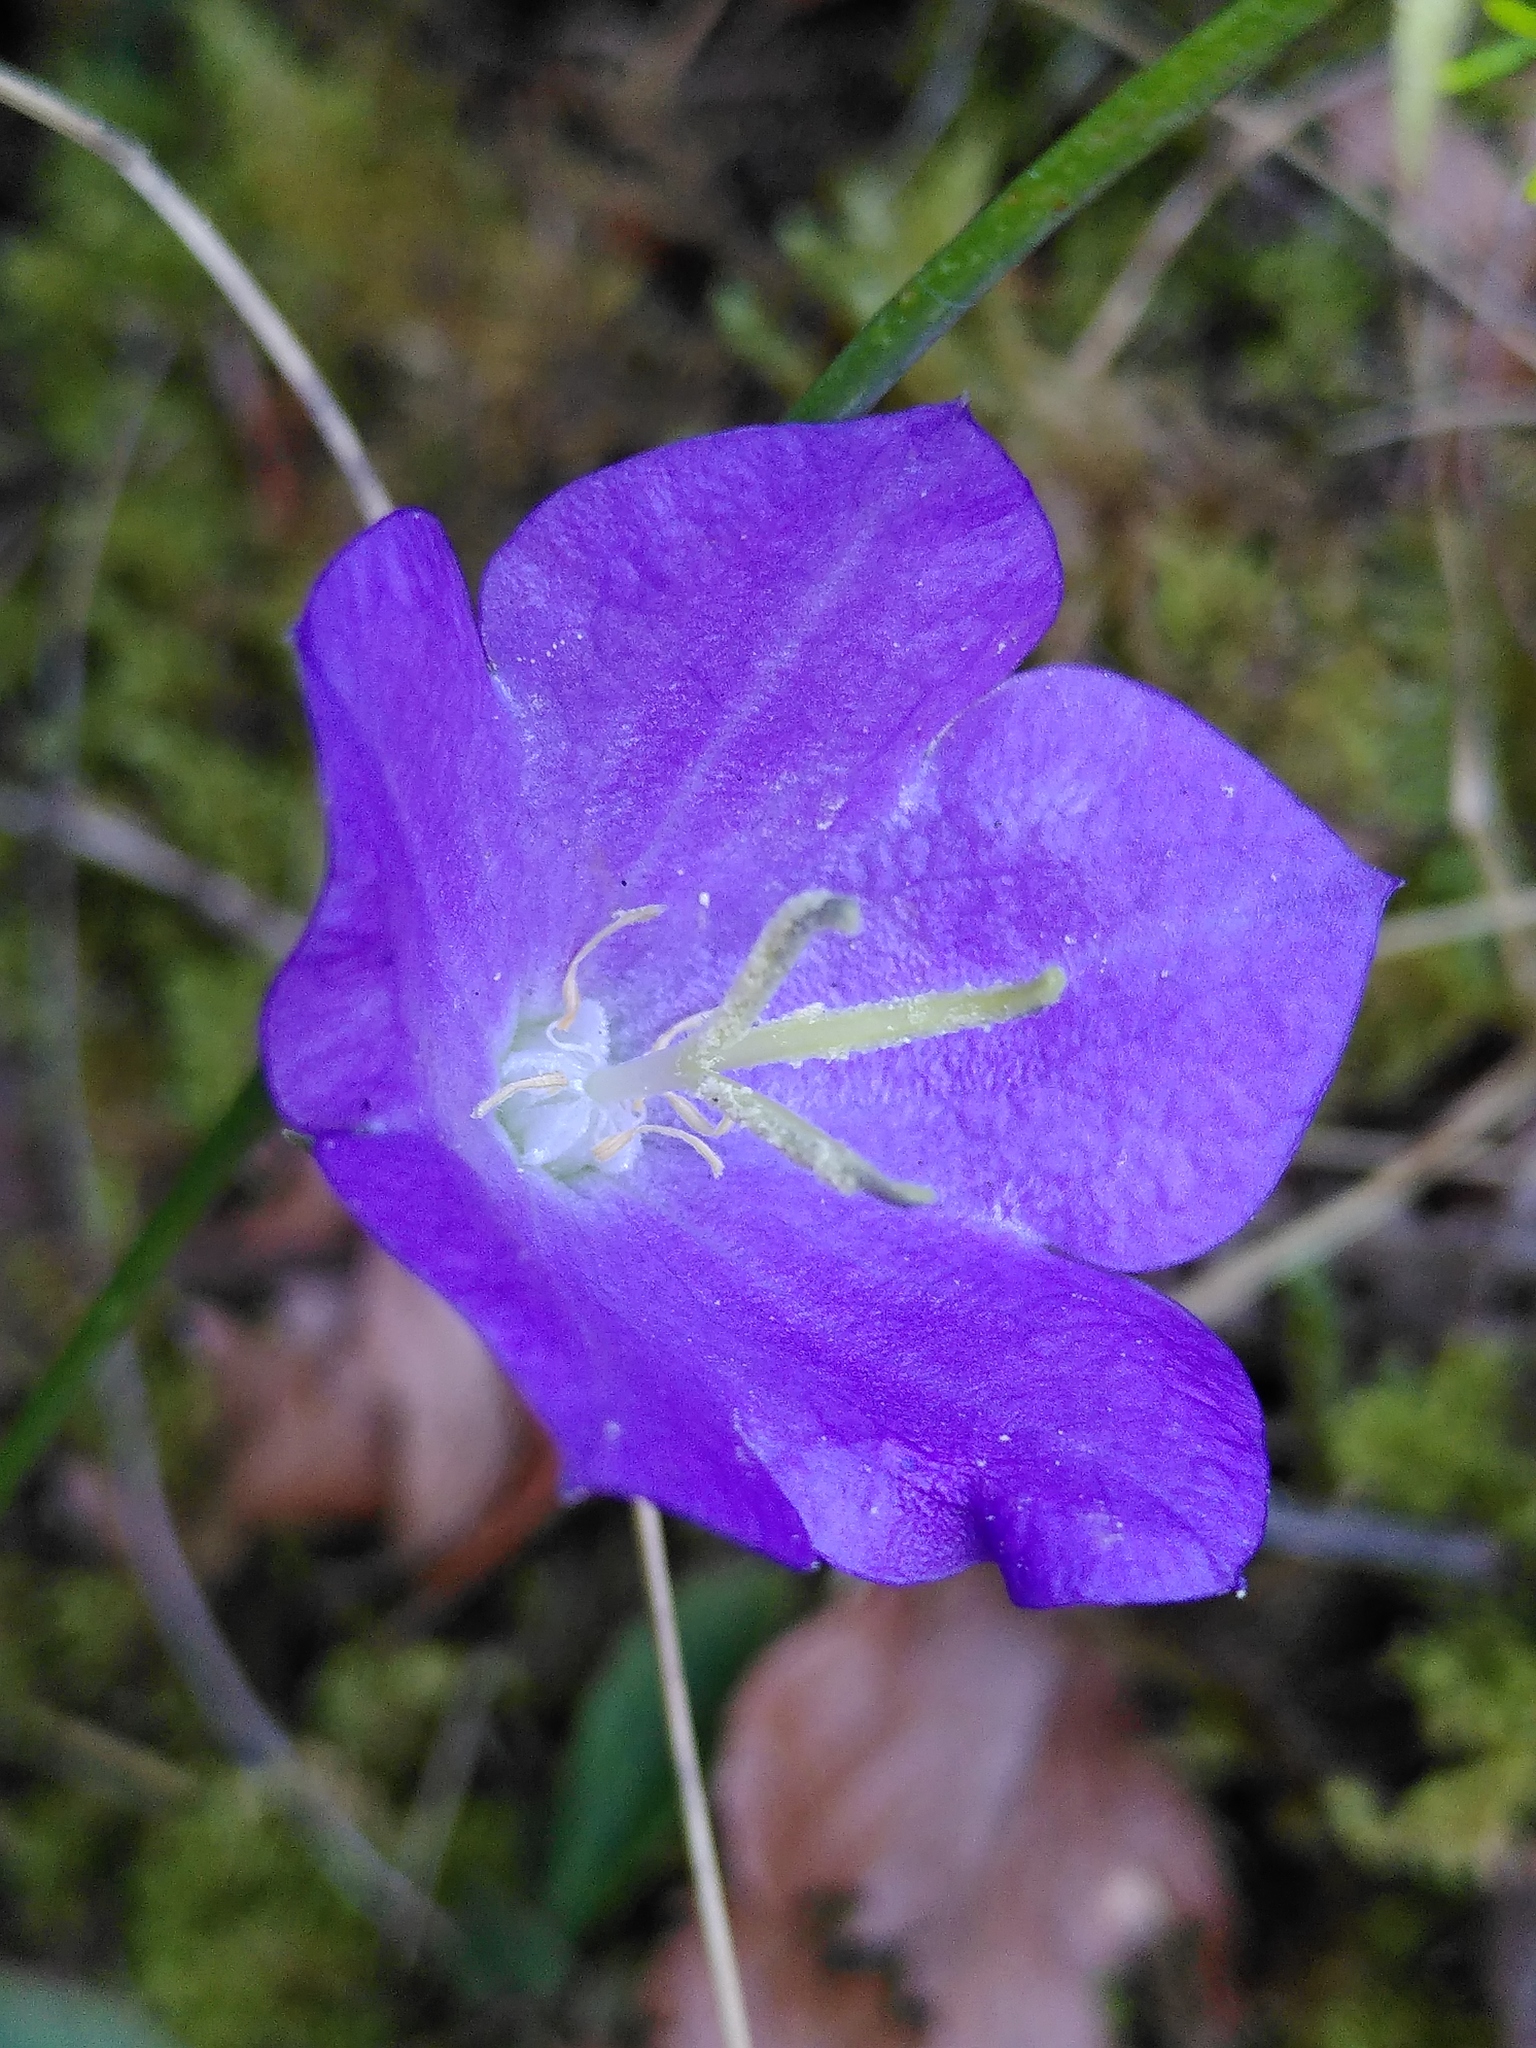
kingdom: Plantae
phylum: Tracheophyta
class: Magnoliopsida
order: Asterales
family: Campanulaceae
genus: Campanula
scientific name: Campanula persicifolia
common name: Peach-leaved bellflower
